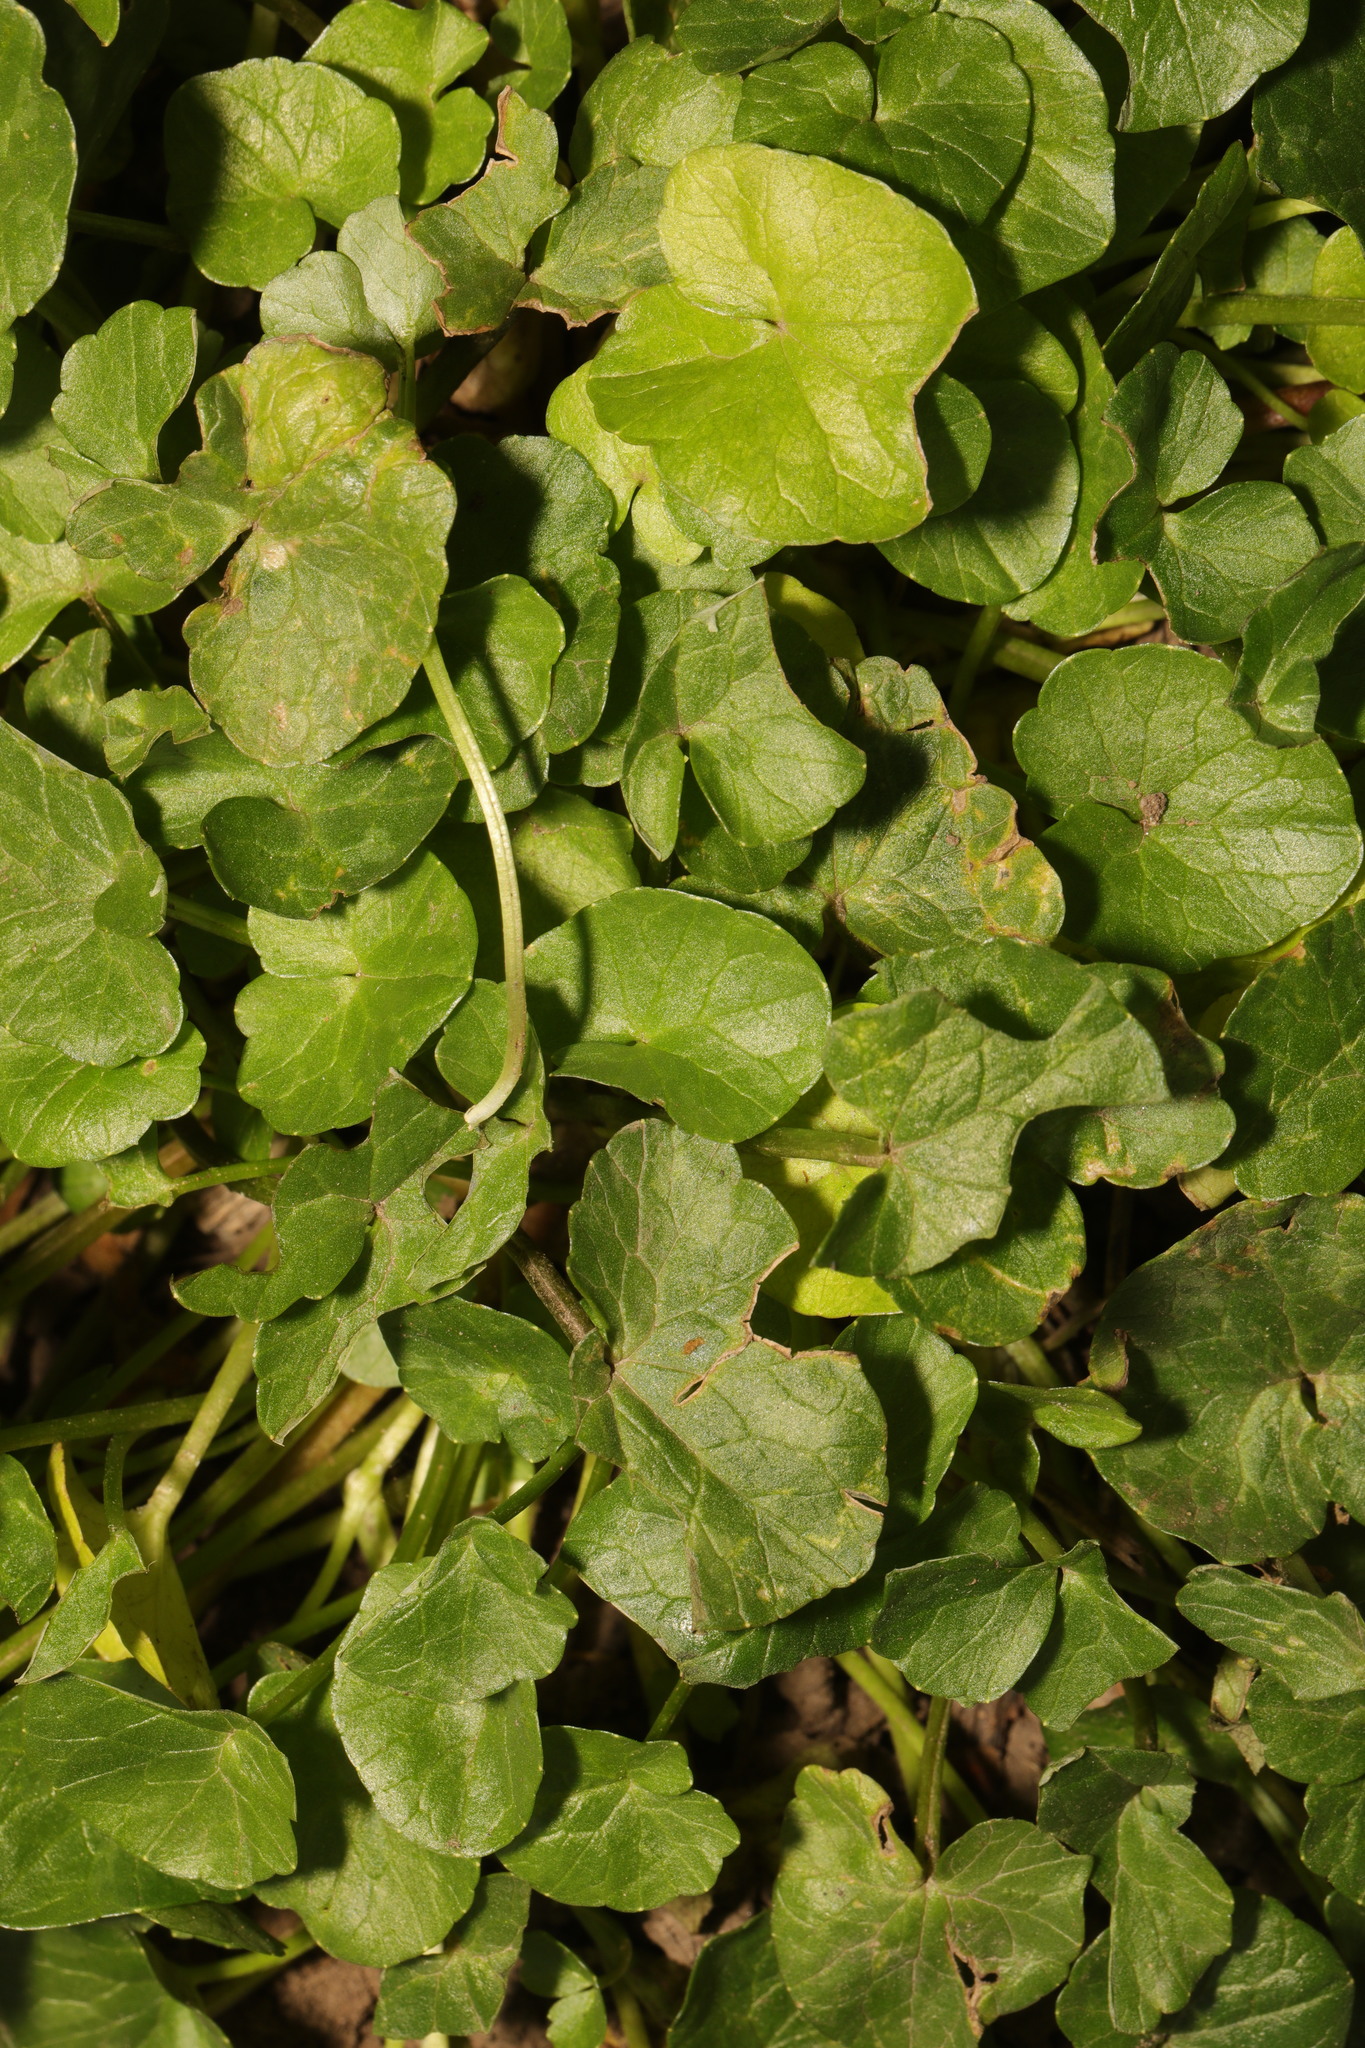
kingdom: Plantae
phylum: Tracheophyta
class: Magnoliopsida
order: Ranunculales
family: Ranunculaceae
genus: Ficaria
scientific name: Ficaria verna
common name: Lesser celandine
